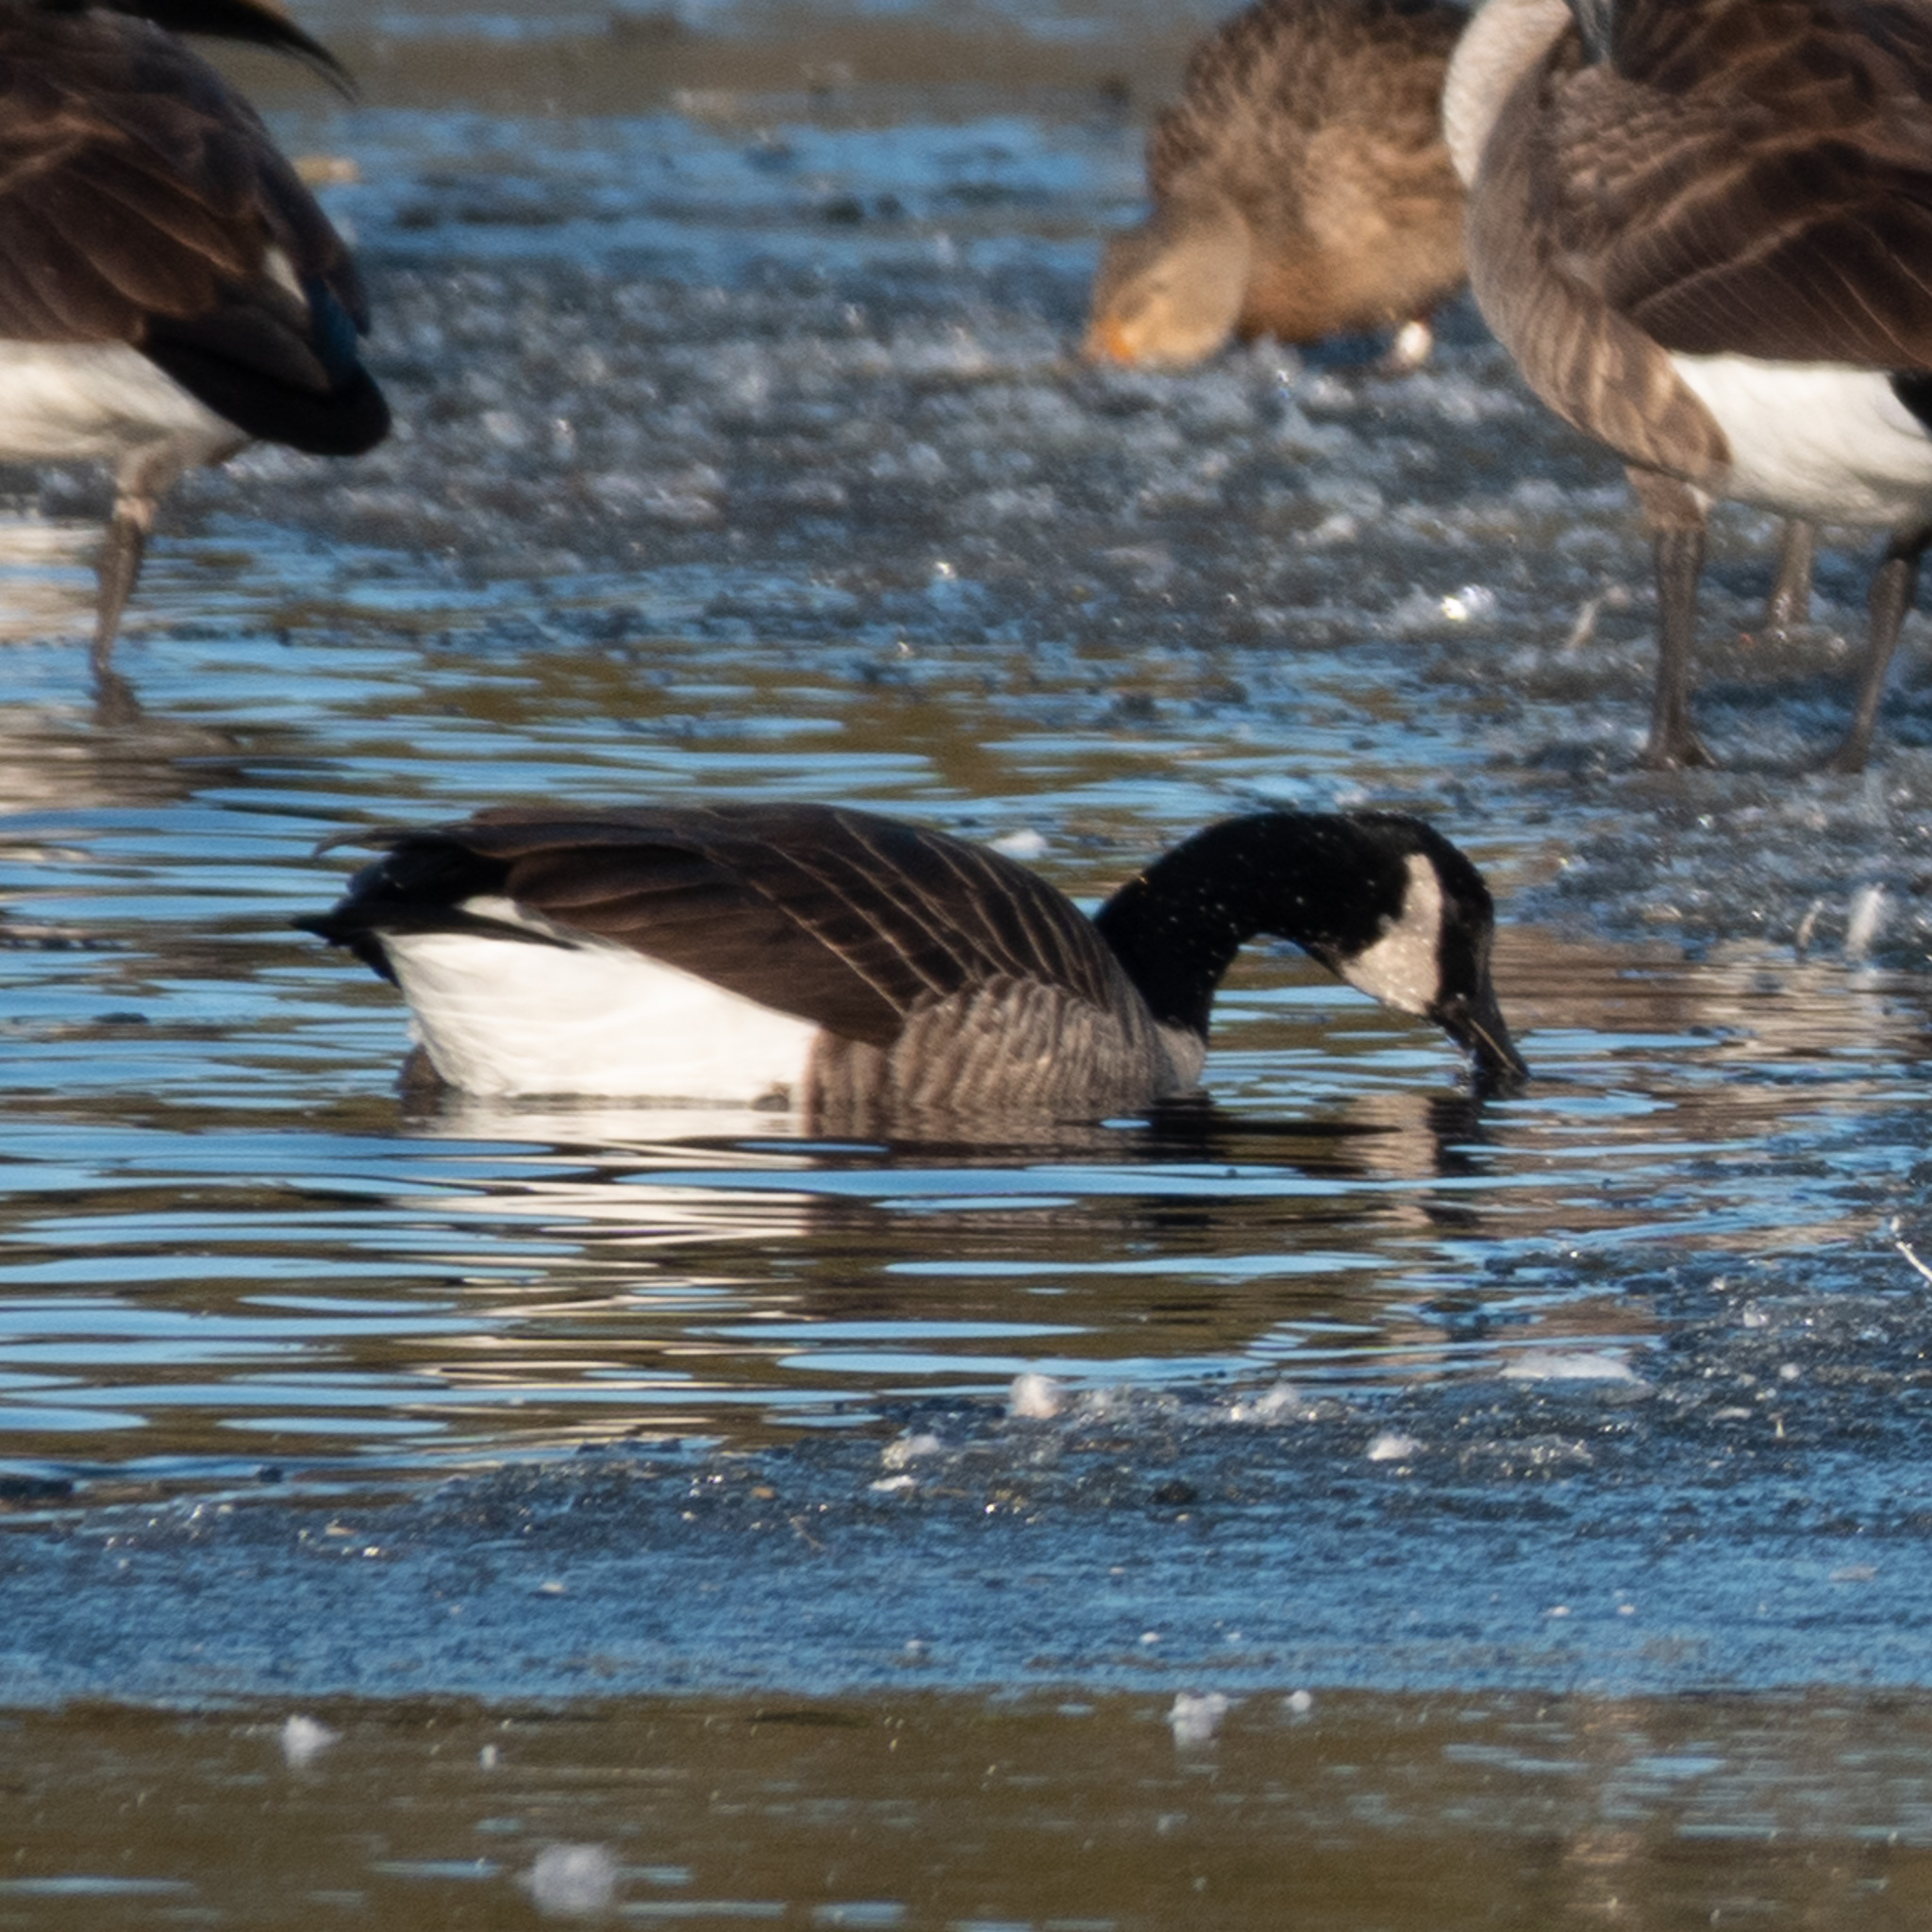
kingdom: Animalia
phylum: Chordata
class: Aves
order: Anseriformes
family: Anatidae
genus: Branta
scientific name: Branta canadensis
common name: Canada goose
